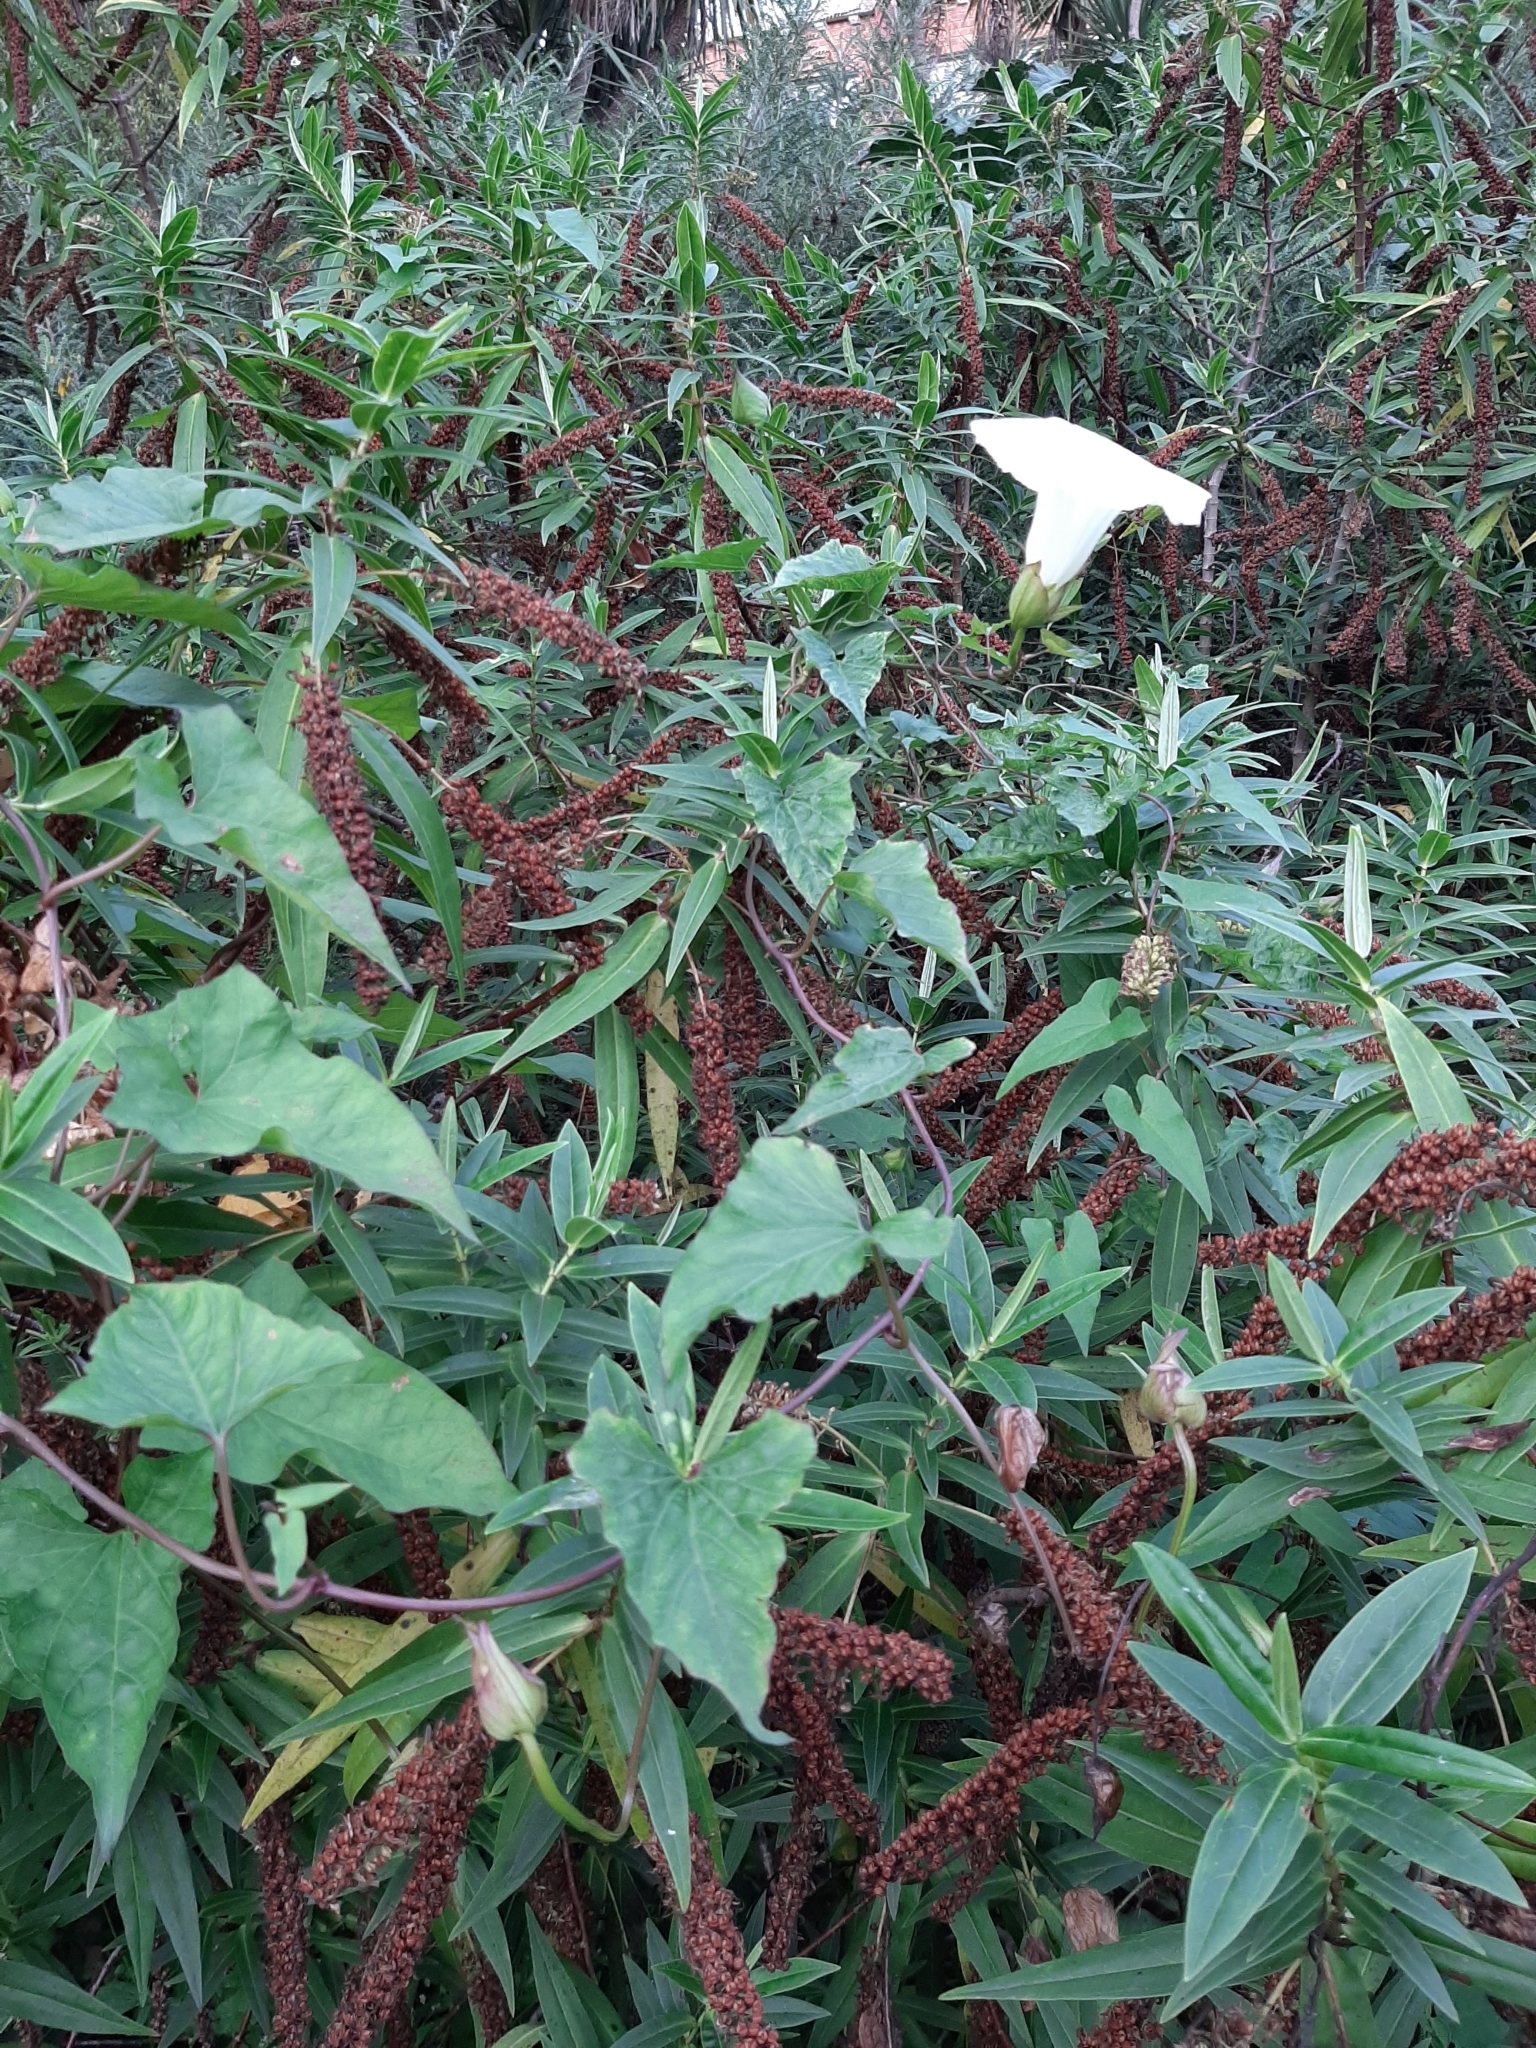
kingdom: Plantae
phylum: Tracheophyta
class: Magnoliopsida
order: Solanales
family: Convolvulaceae
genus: Calystegia
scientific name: Calystegia silvatica
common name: Large bindweed
